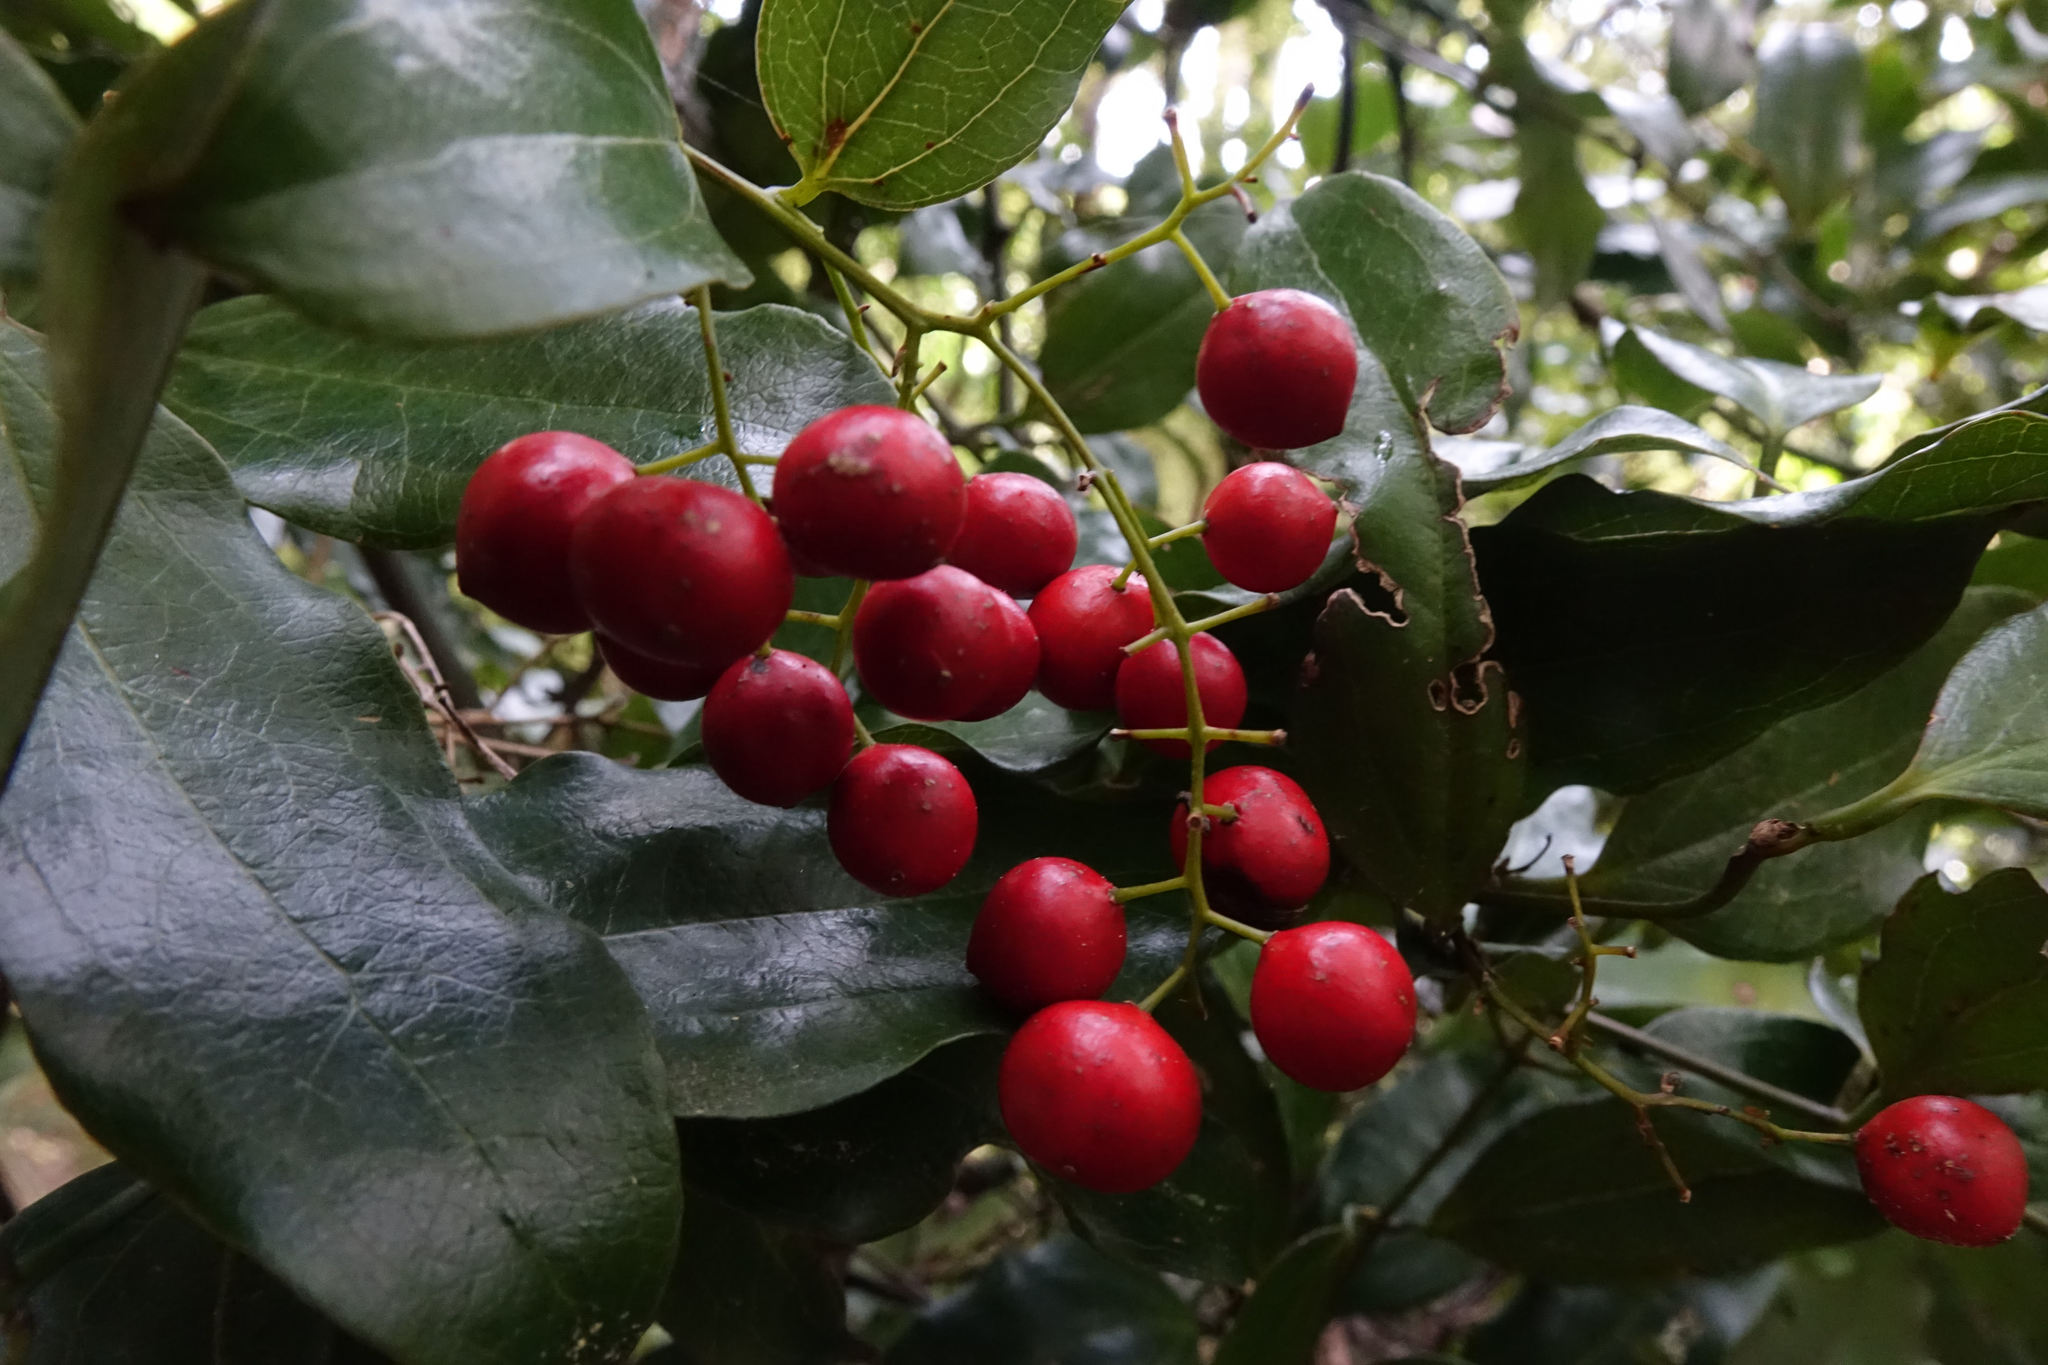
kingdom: Plantae
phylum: Tracheophyta
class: Liliopsida
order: Liliales
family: Ripogonaceae
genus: Ripogonum
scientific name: Ripogonum scandens
